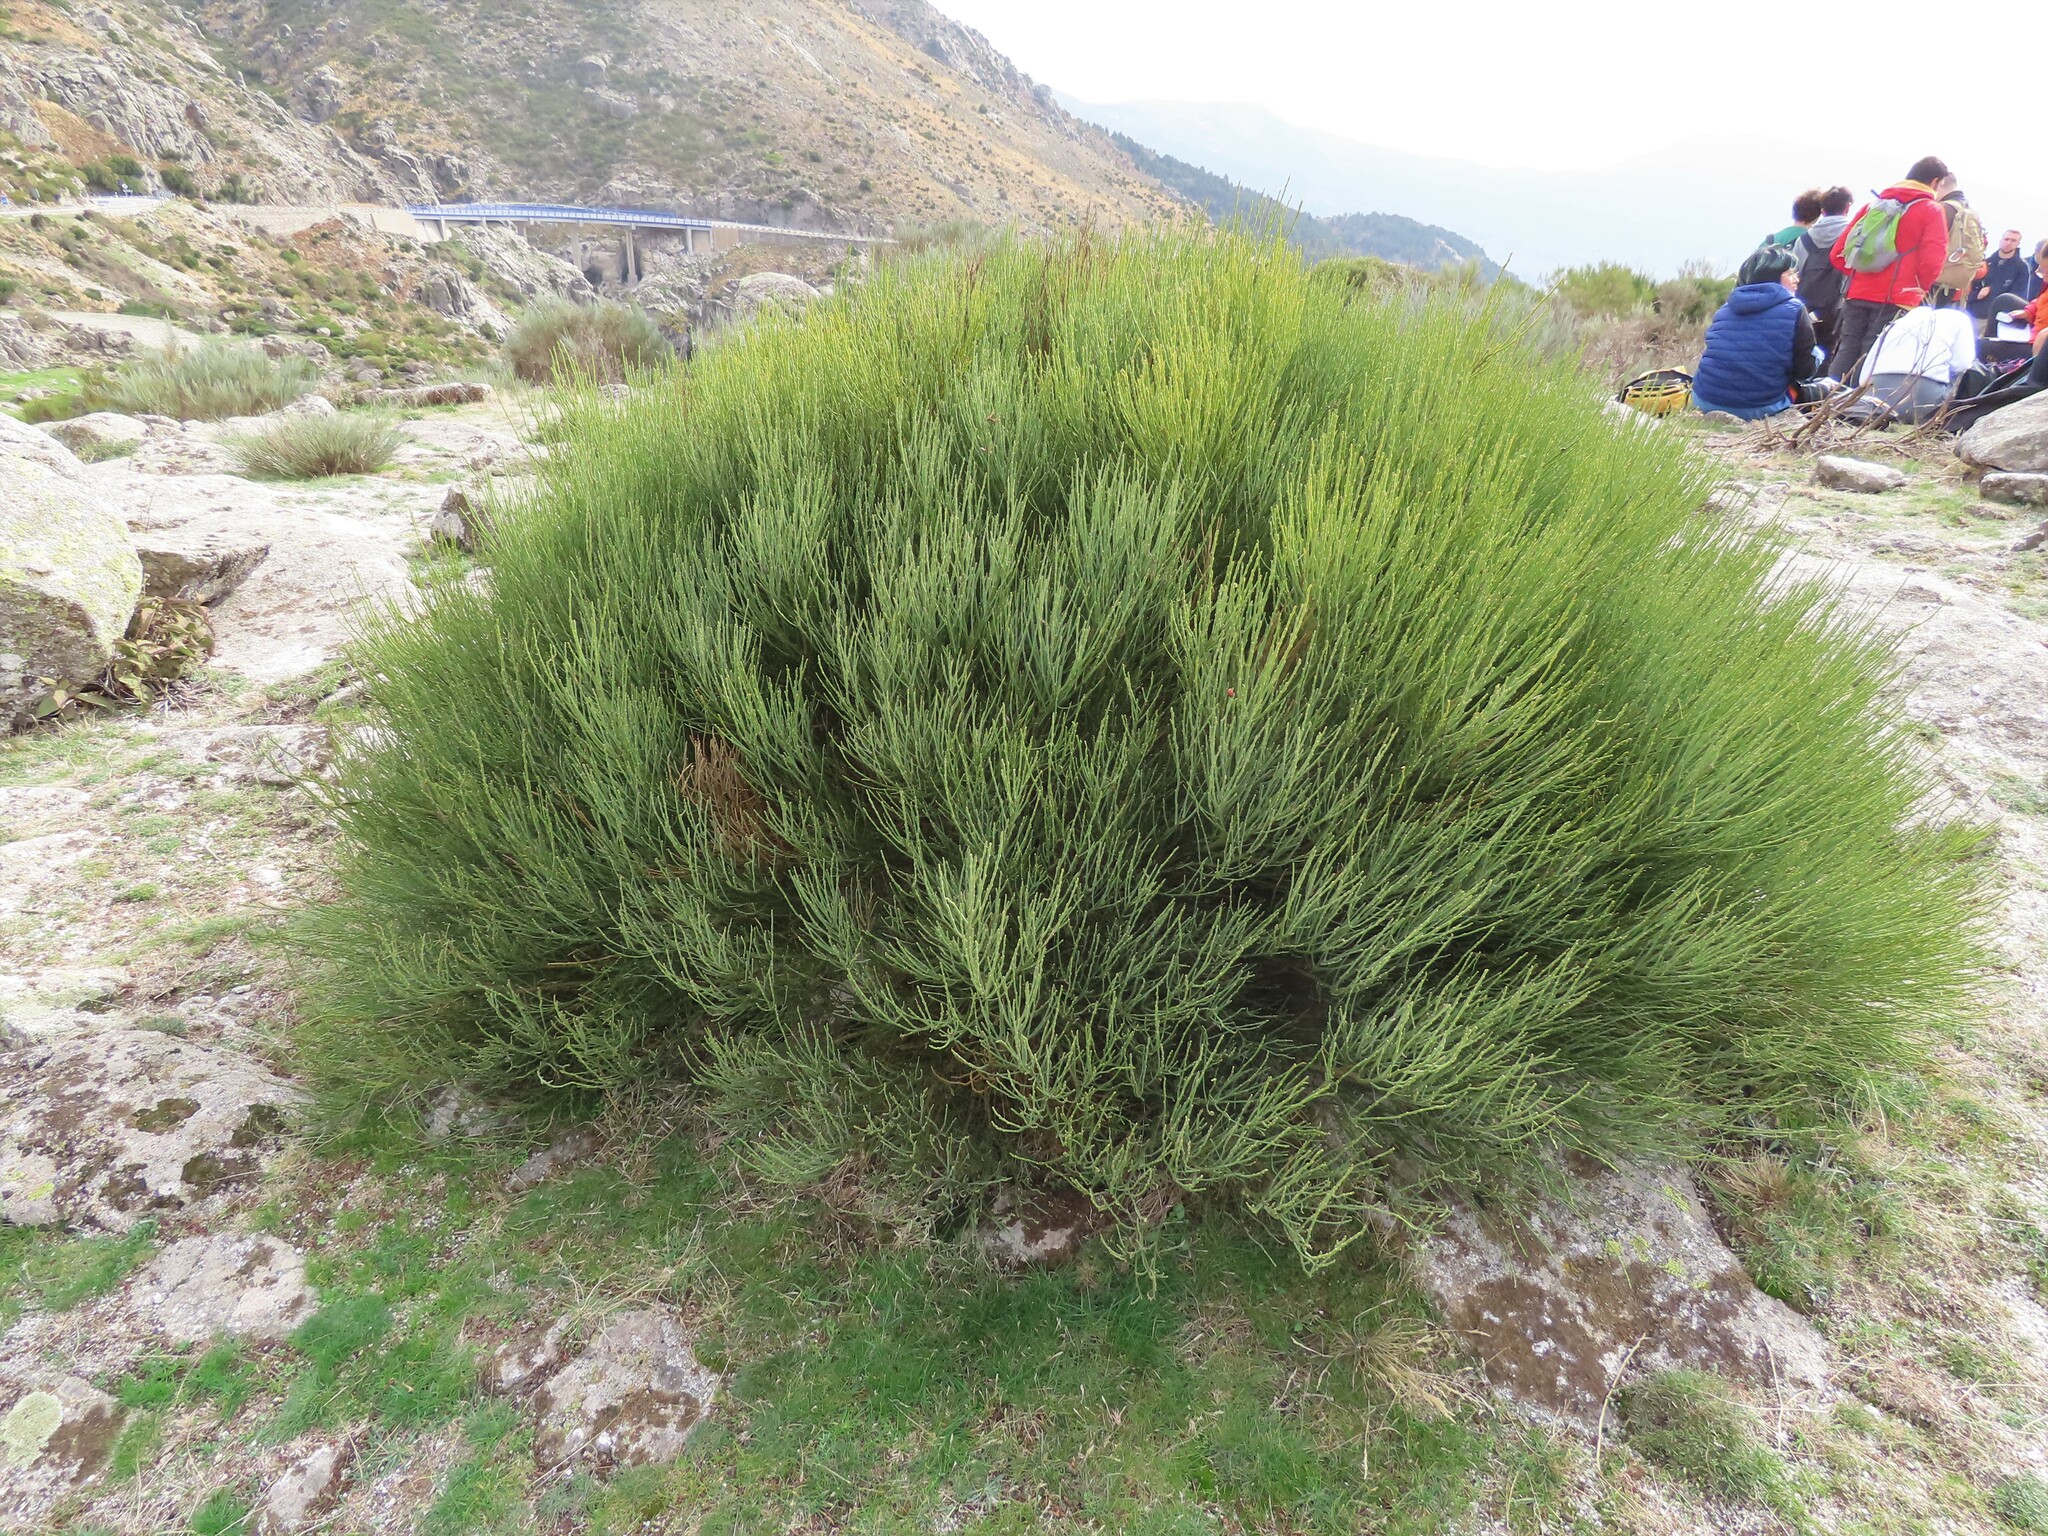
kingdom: Plantae
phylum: Tracheophyta
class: Magnoliopsida
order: Fabales
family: Fabaceae
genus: Cytisus
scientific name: Cytisus oromediterraneus
